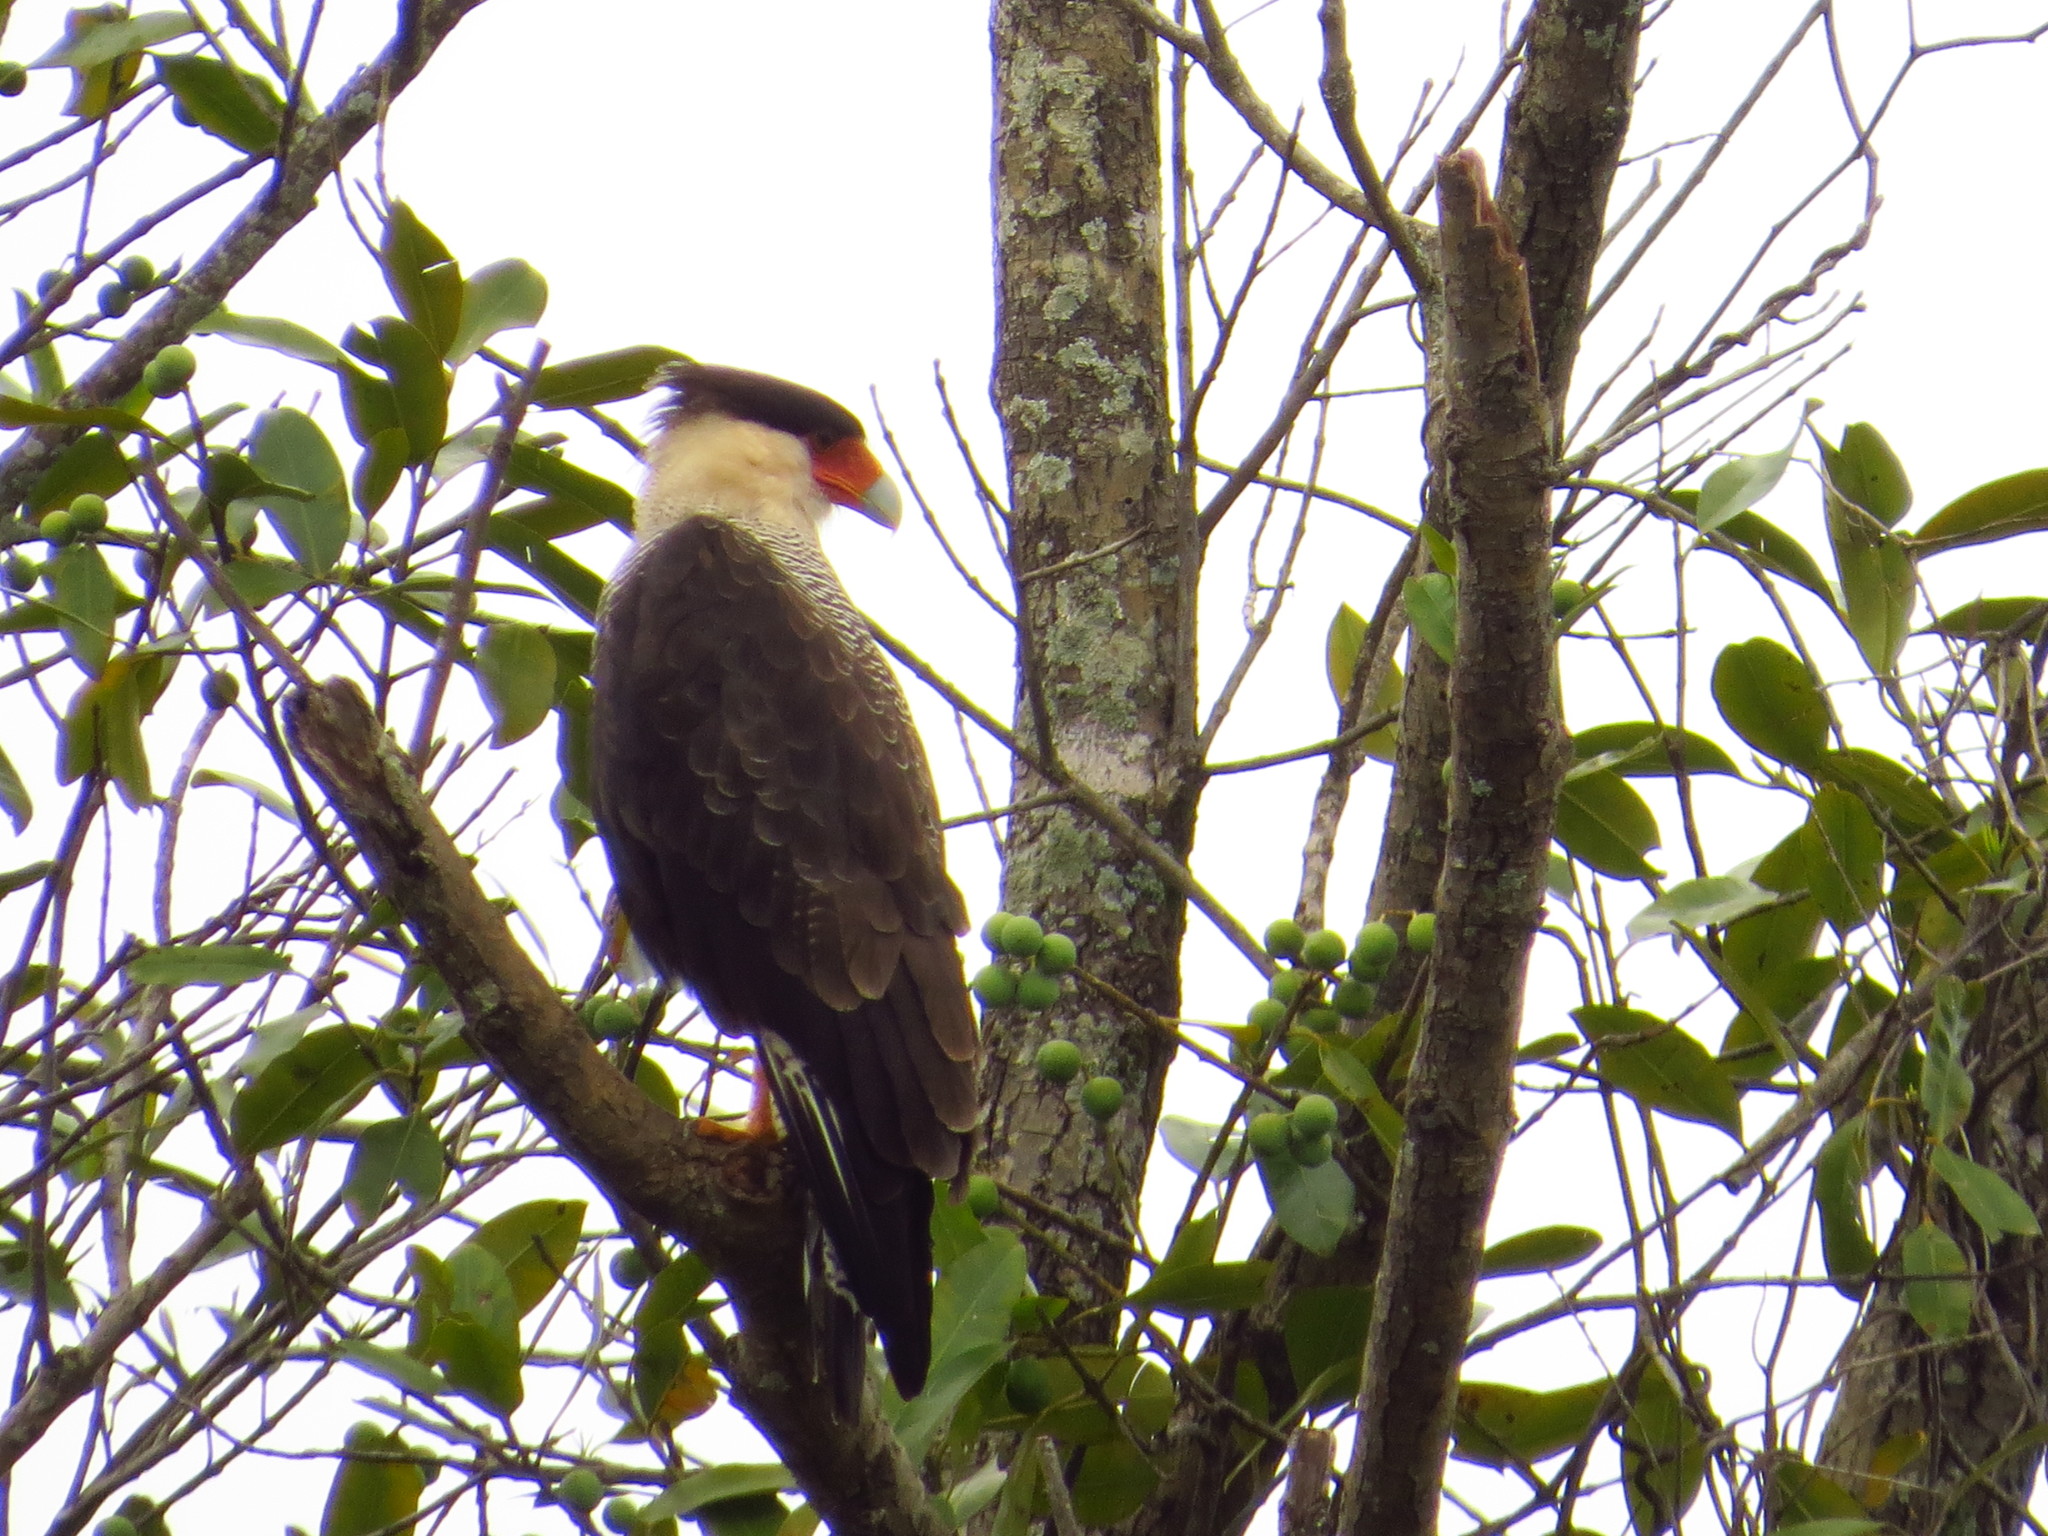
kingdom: Animalia
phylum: Chordata
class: Aves
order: Falconiformes
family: Falconidae
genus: Caracara
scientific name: Caracara plancus
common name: Southern caracara
